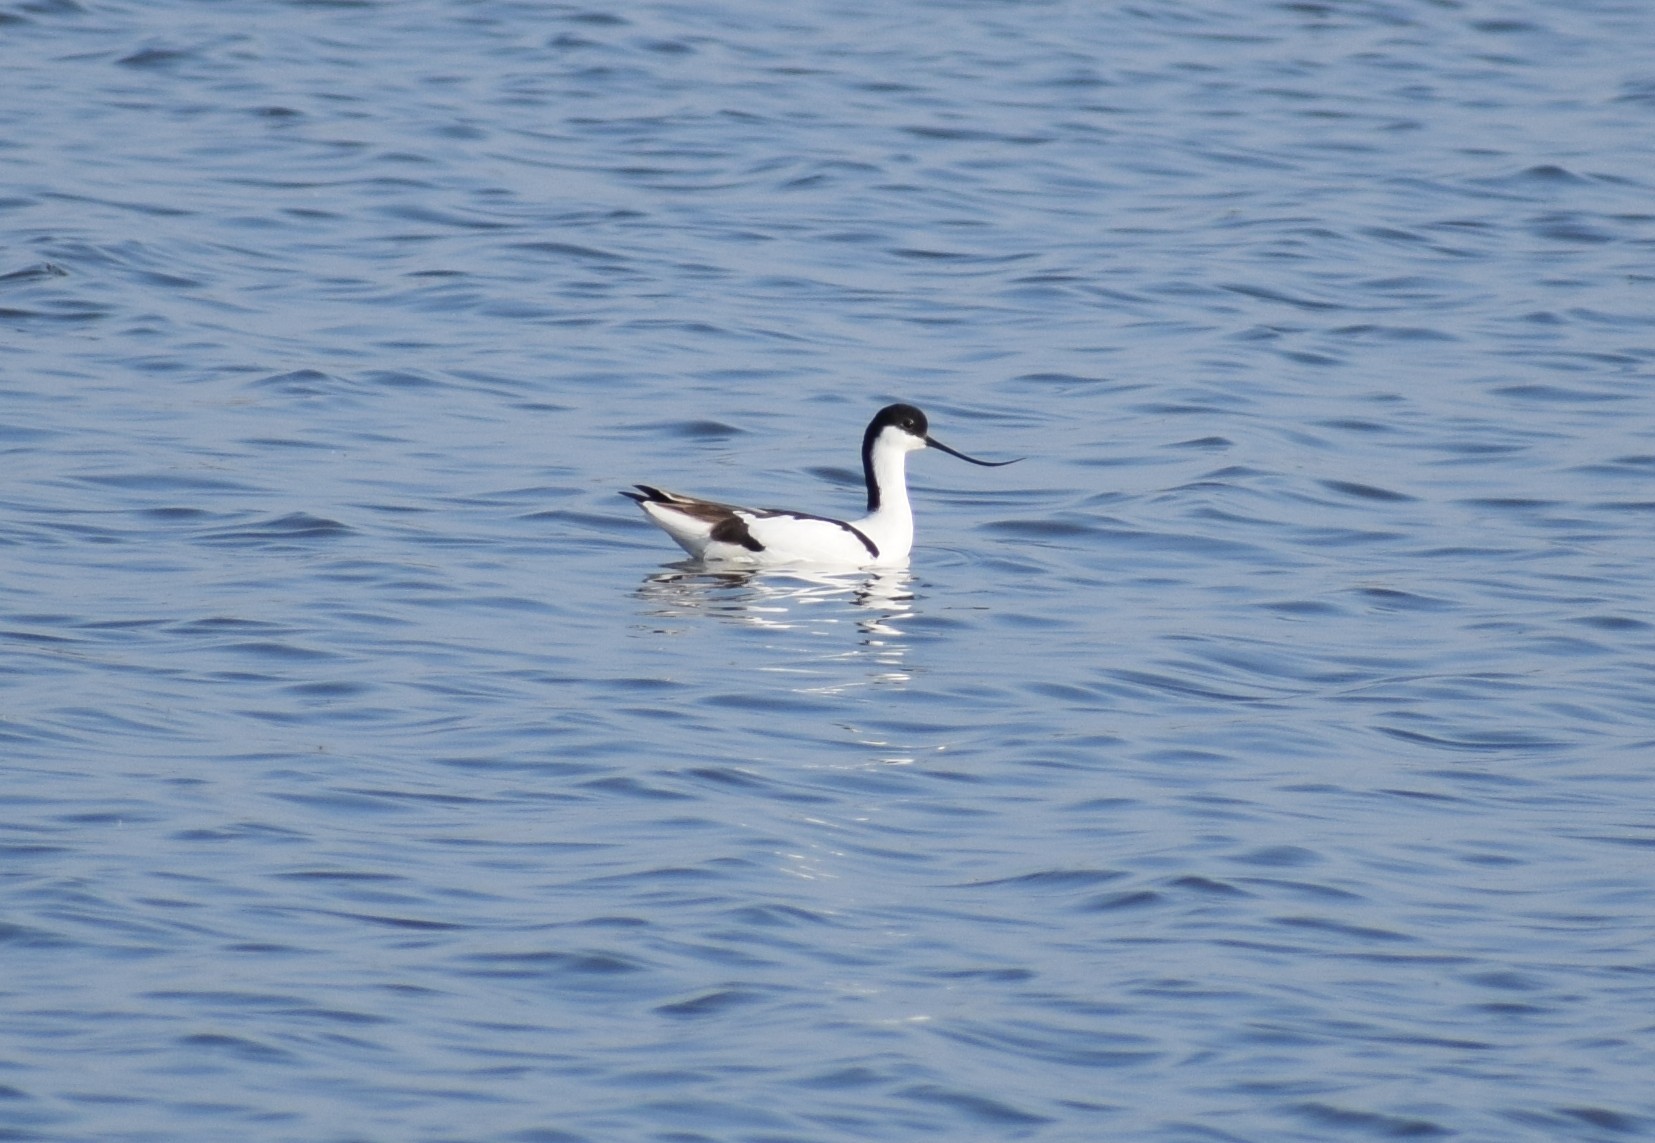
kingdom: Animalia
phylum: Chordata
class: Aves
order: Charadriiformes
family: Recurvirostridae
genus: Recurvirostra
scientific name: Recurvirostra avosetta
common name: Pied avocet
